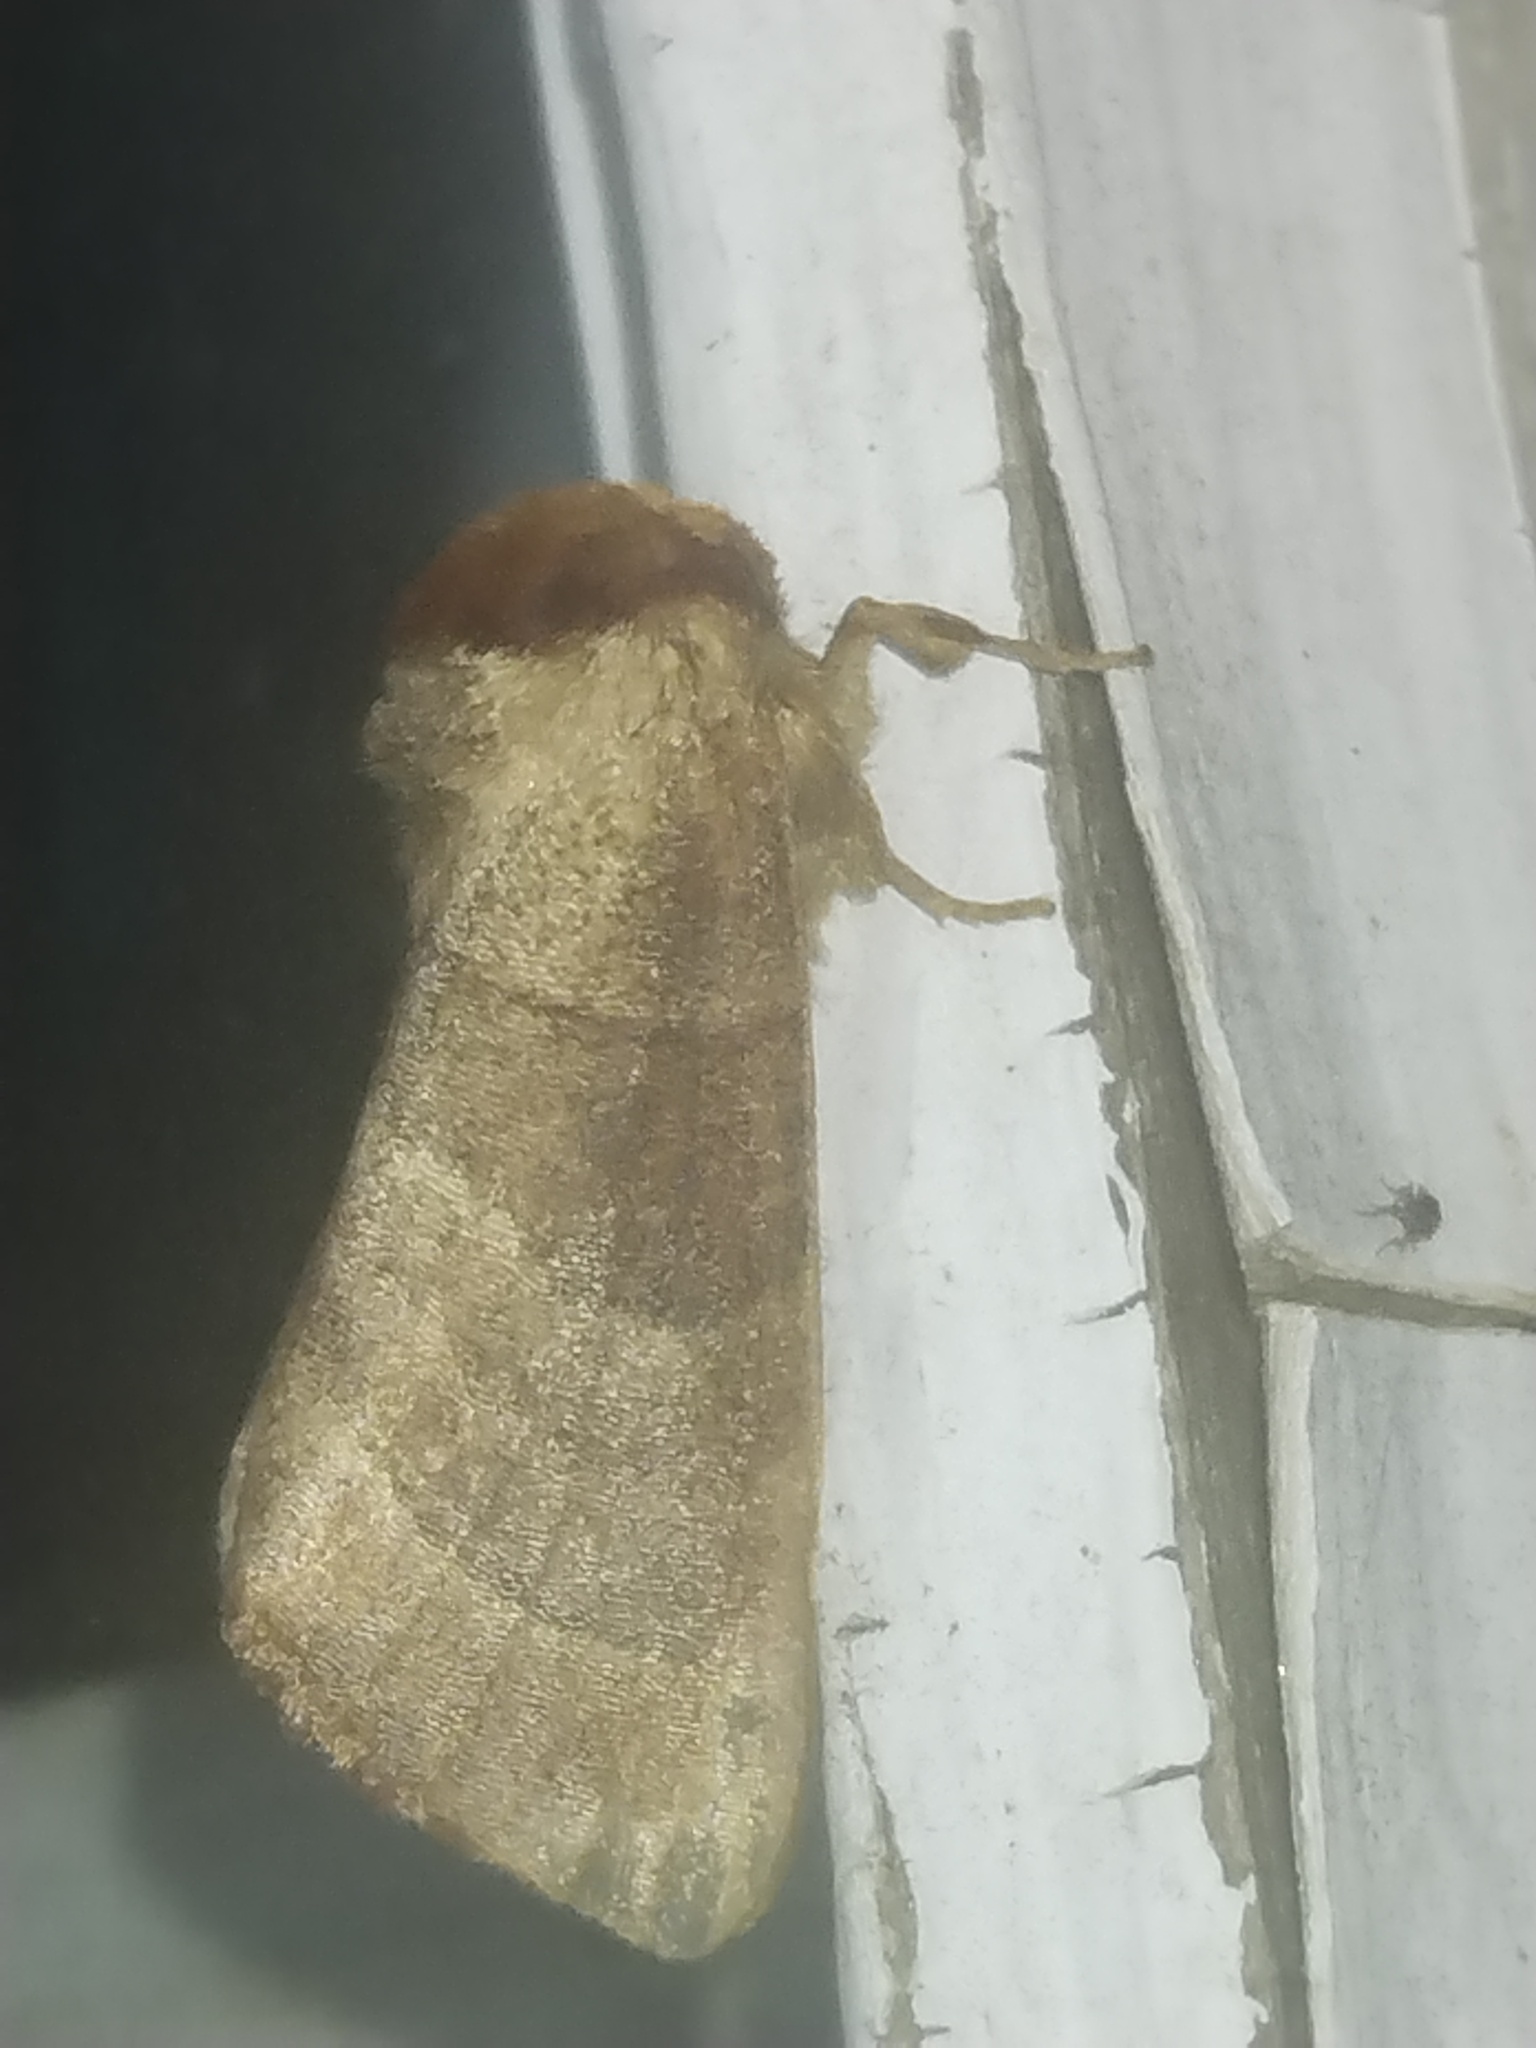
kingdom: Animalia
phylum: Arthropoda
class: Insecta
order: Lepidoptera
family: Notodontidae
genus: Datana
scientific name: Datana integerrima
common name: Walnut caterpillar
